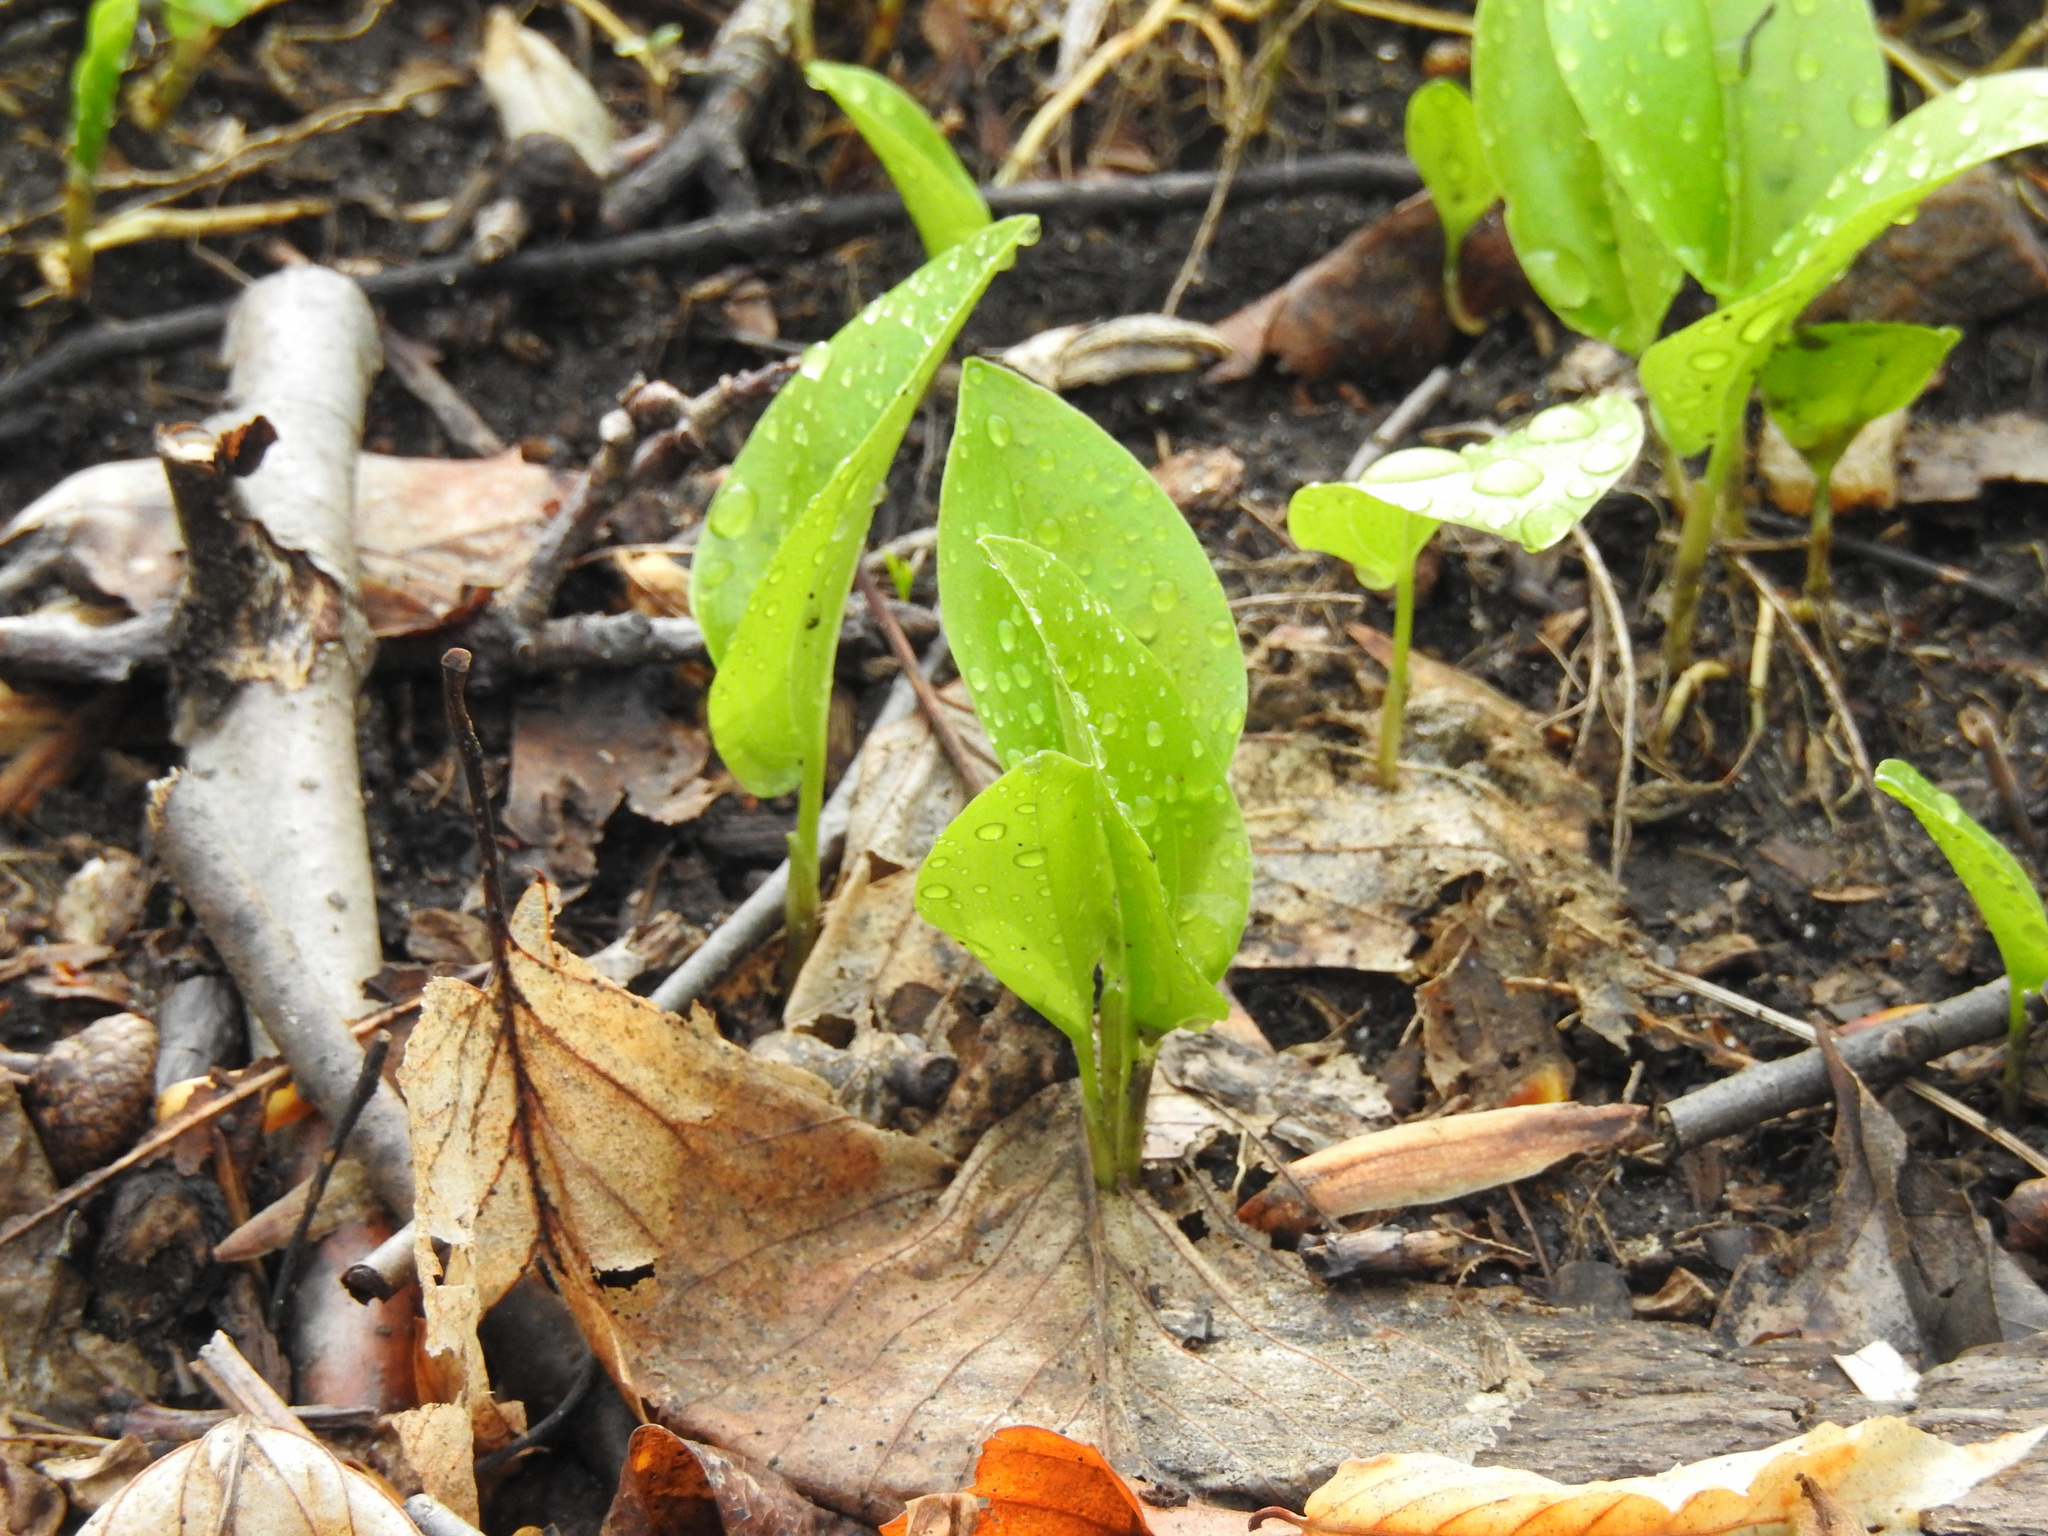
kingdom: Plantae
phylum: Tracheophyta
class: Liliopsida
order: Asparagales
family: Asparagaceae
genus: Maianthemum
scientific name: Maianthemum canadense
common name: False lily-of-the-valley
